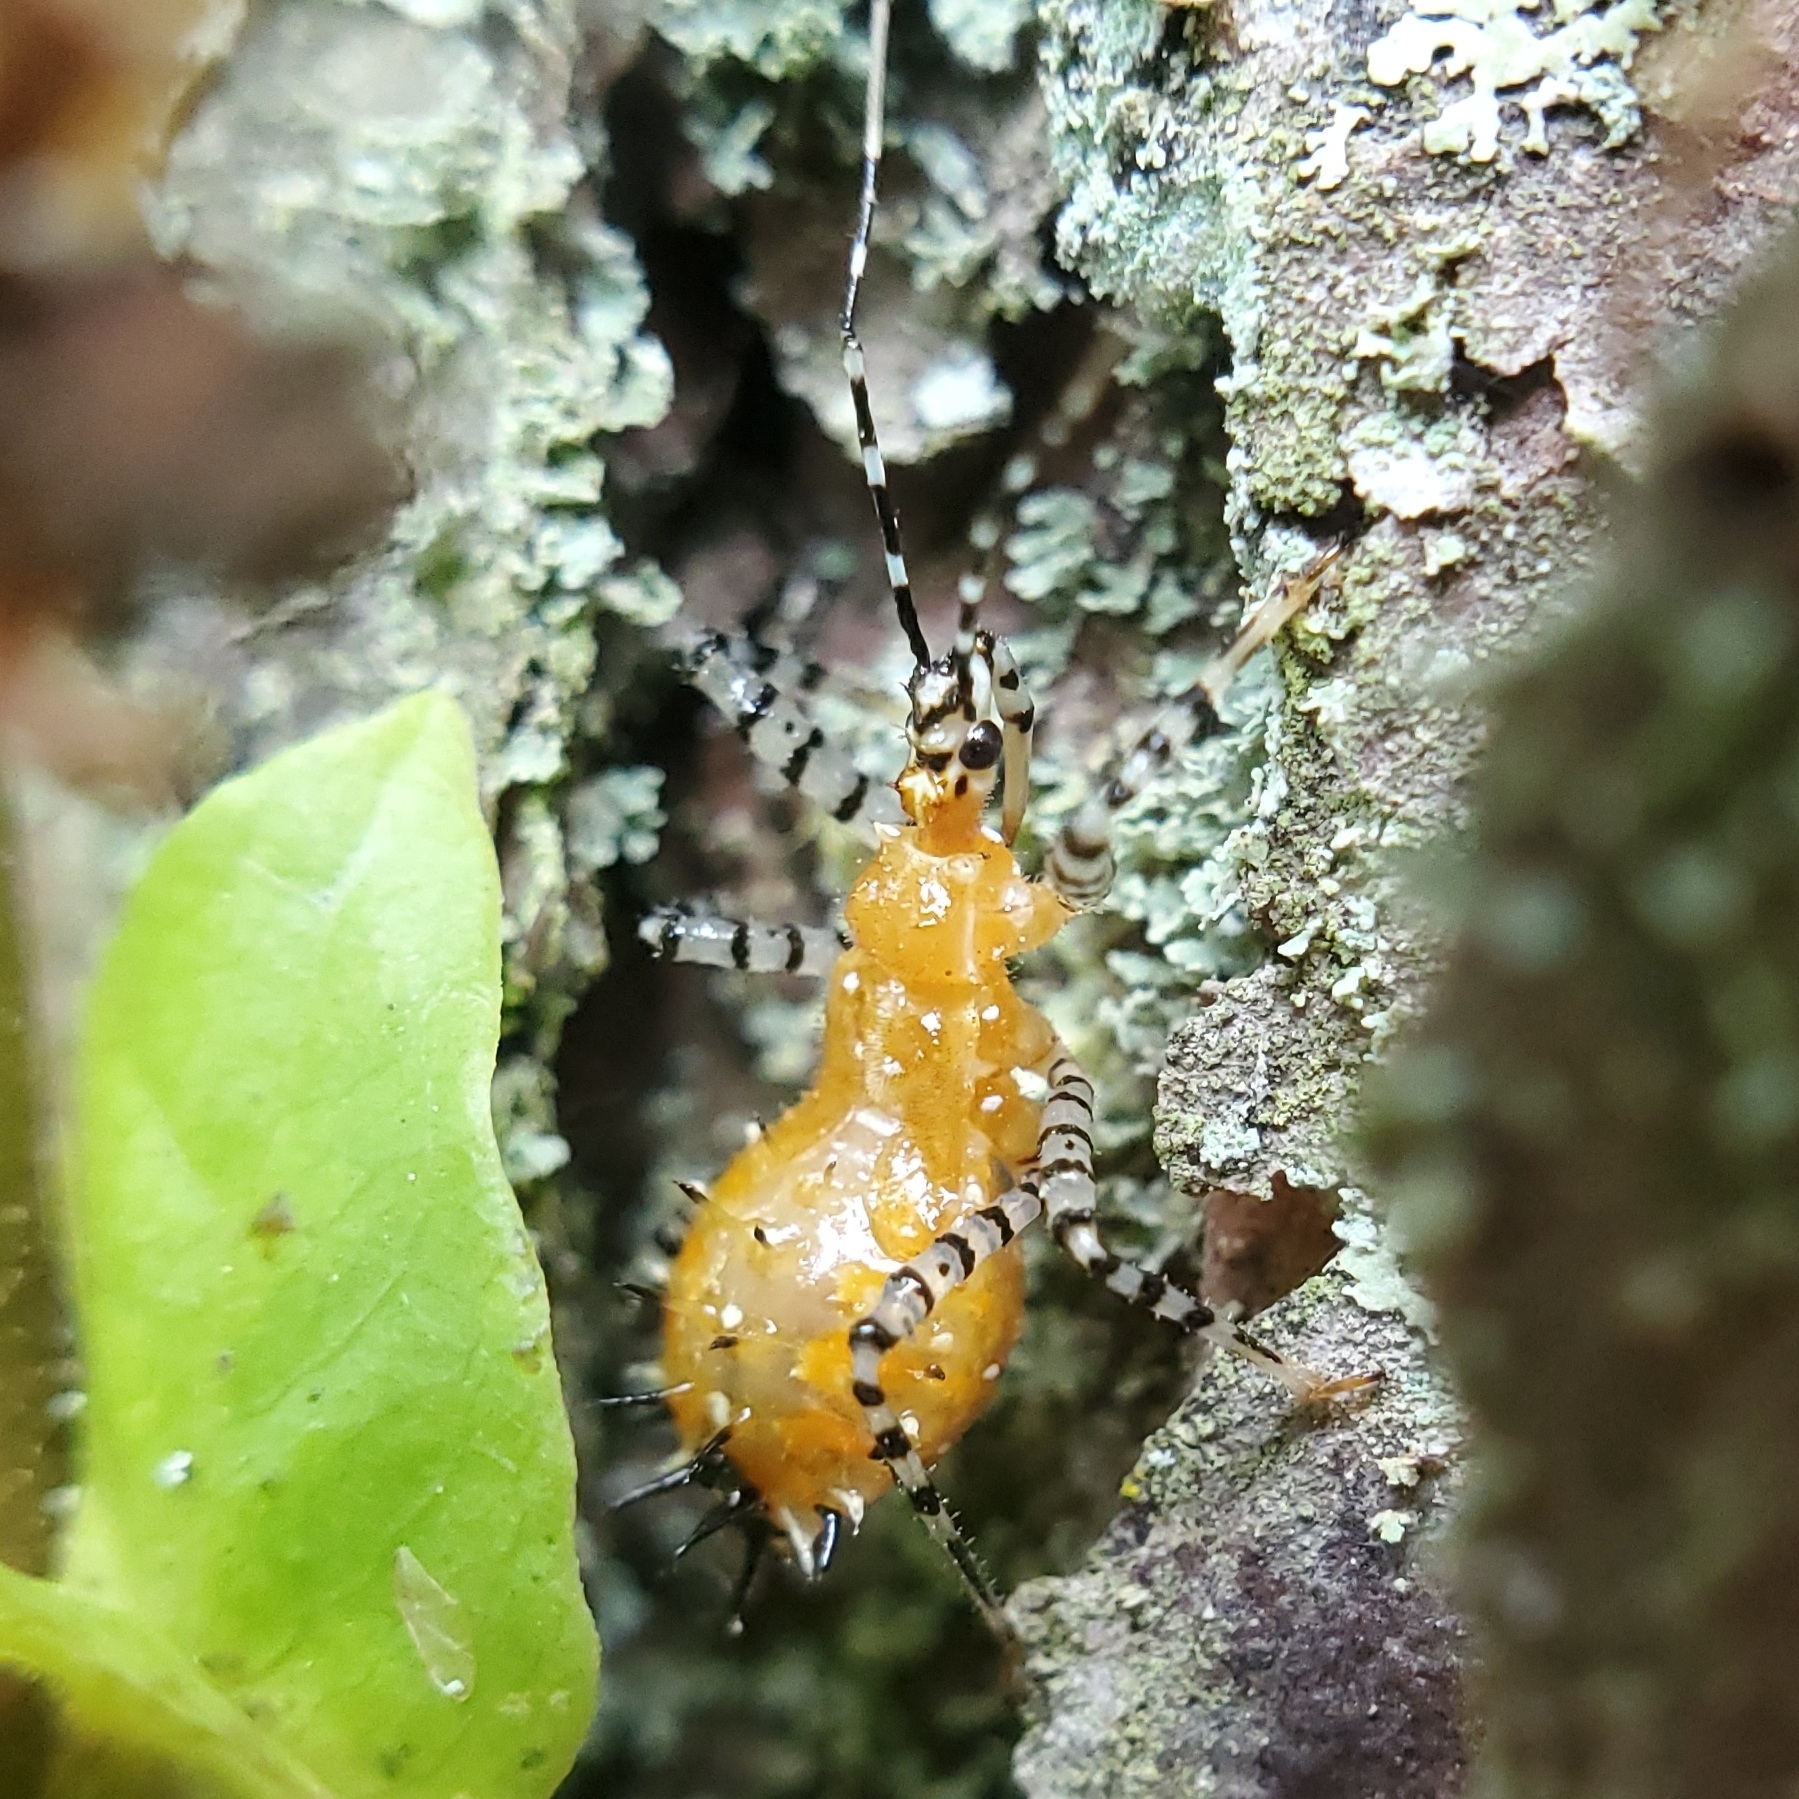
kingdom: Animalia
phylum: Arthropoda
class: Insecta
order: Hemiptera
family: Reduviidae
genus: Pselliopus
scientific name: Pselliopus cinctus
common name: Ringed assassin bug
